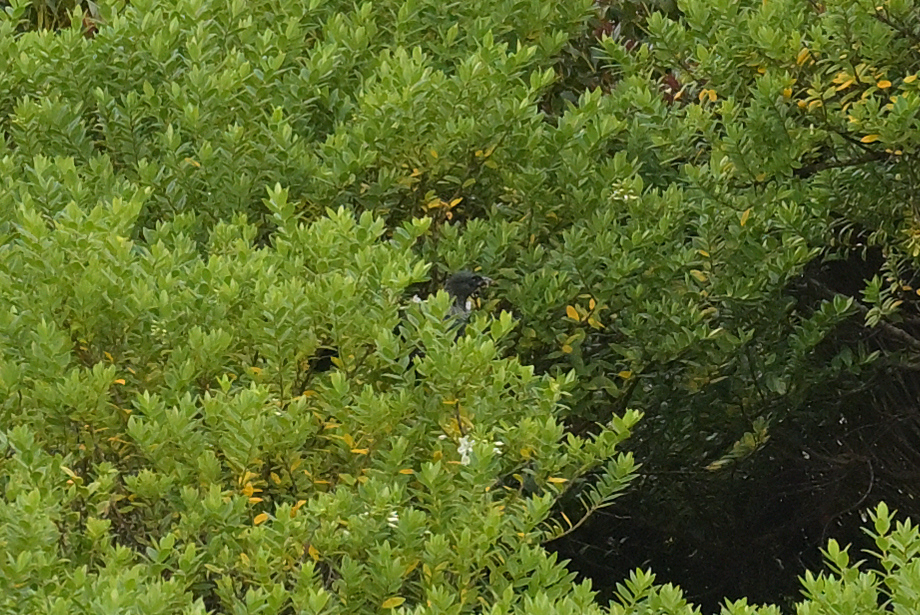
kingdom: Animalia
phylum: Chordata
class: Aves
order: Passeriformes
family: Meliphagidae
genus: Prosthemadera
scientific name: Prosthemadera novaeseelandiae
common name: Tui
